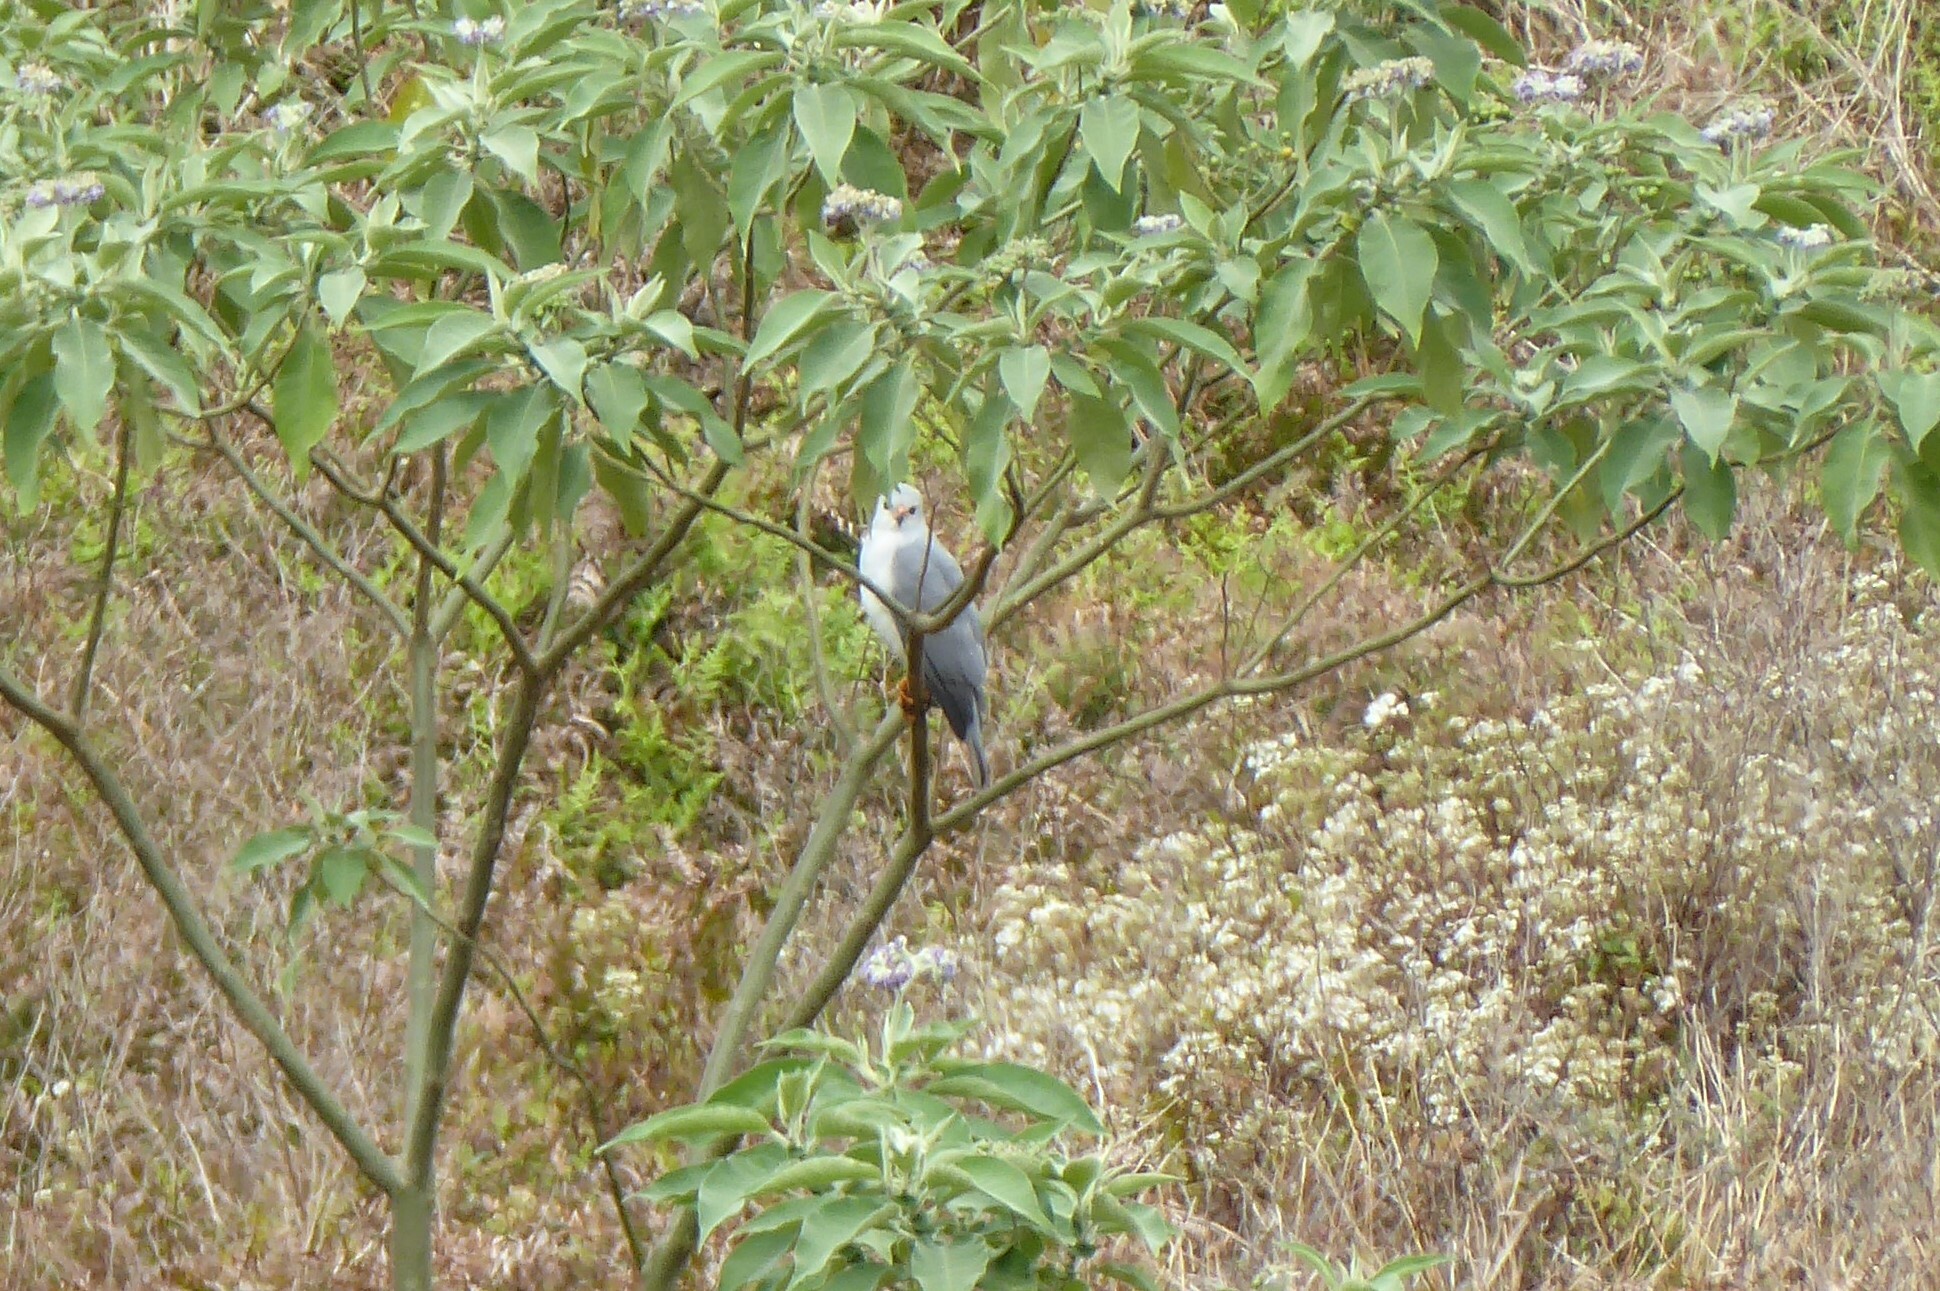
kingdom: Animalia
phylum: Chordata
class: Aves
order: Accipitriformes
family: Accipitridae
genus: Accipiter
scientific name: Accipiter novaehollandiae
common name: Grey goshawk
